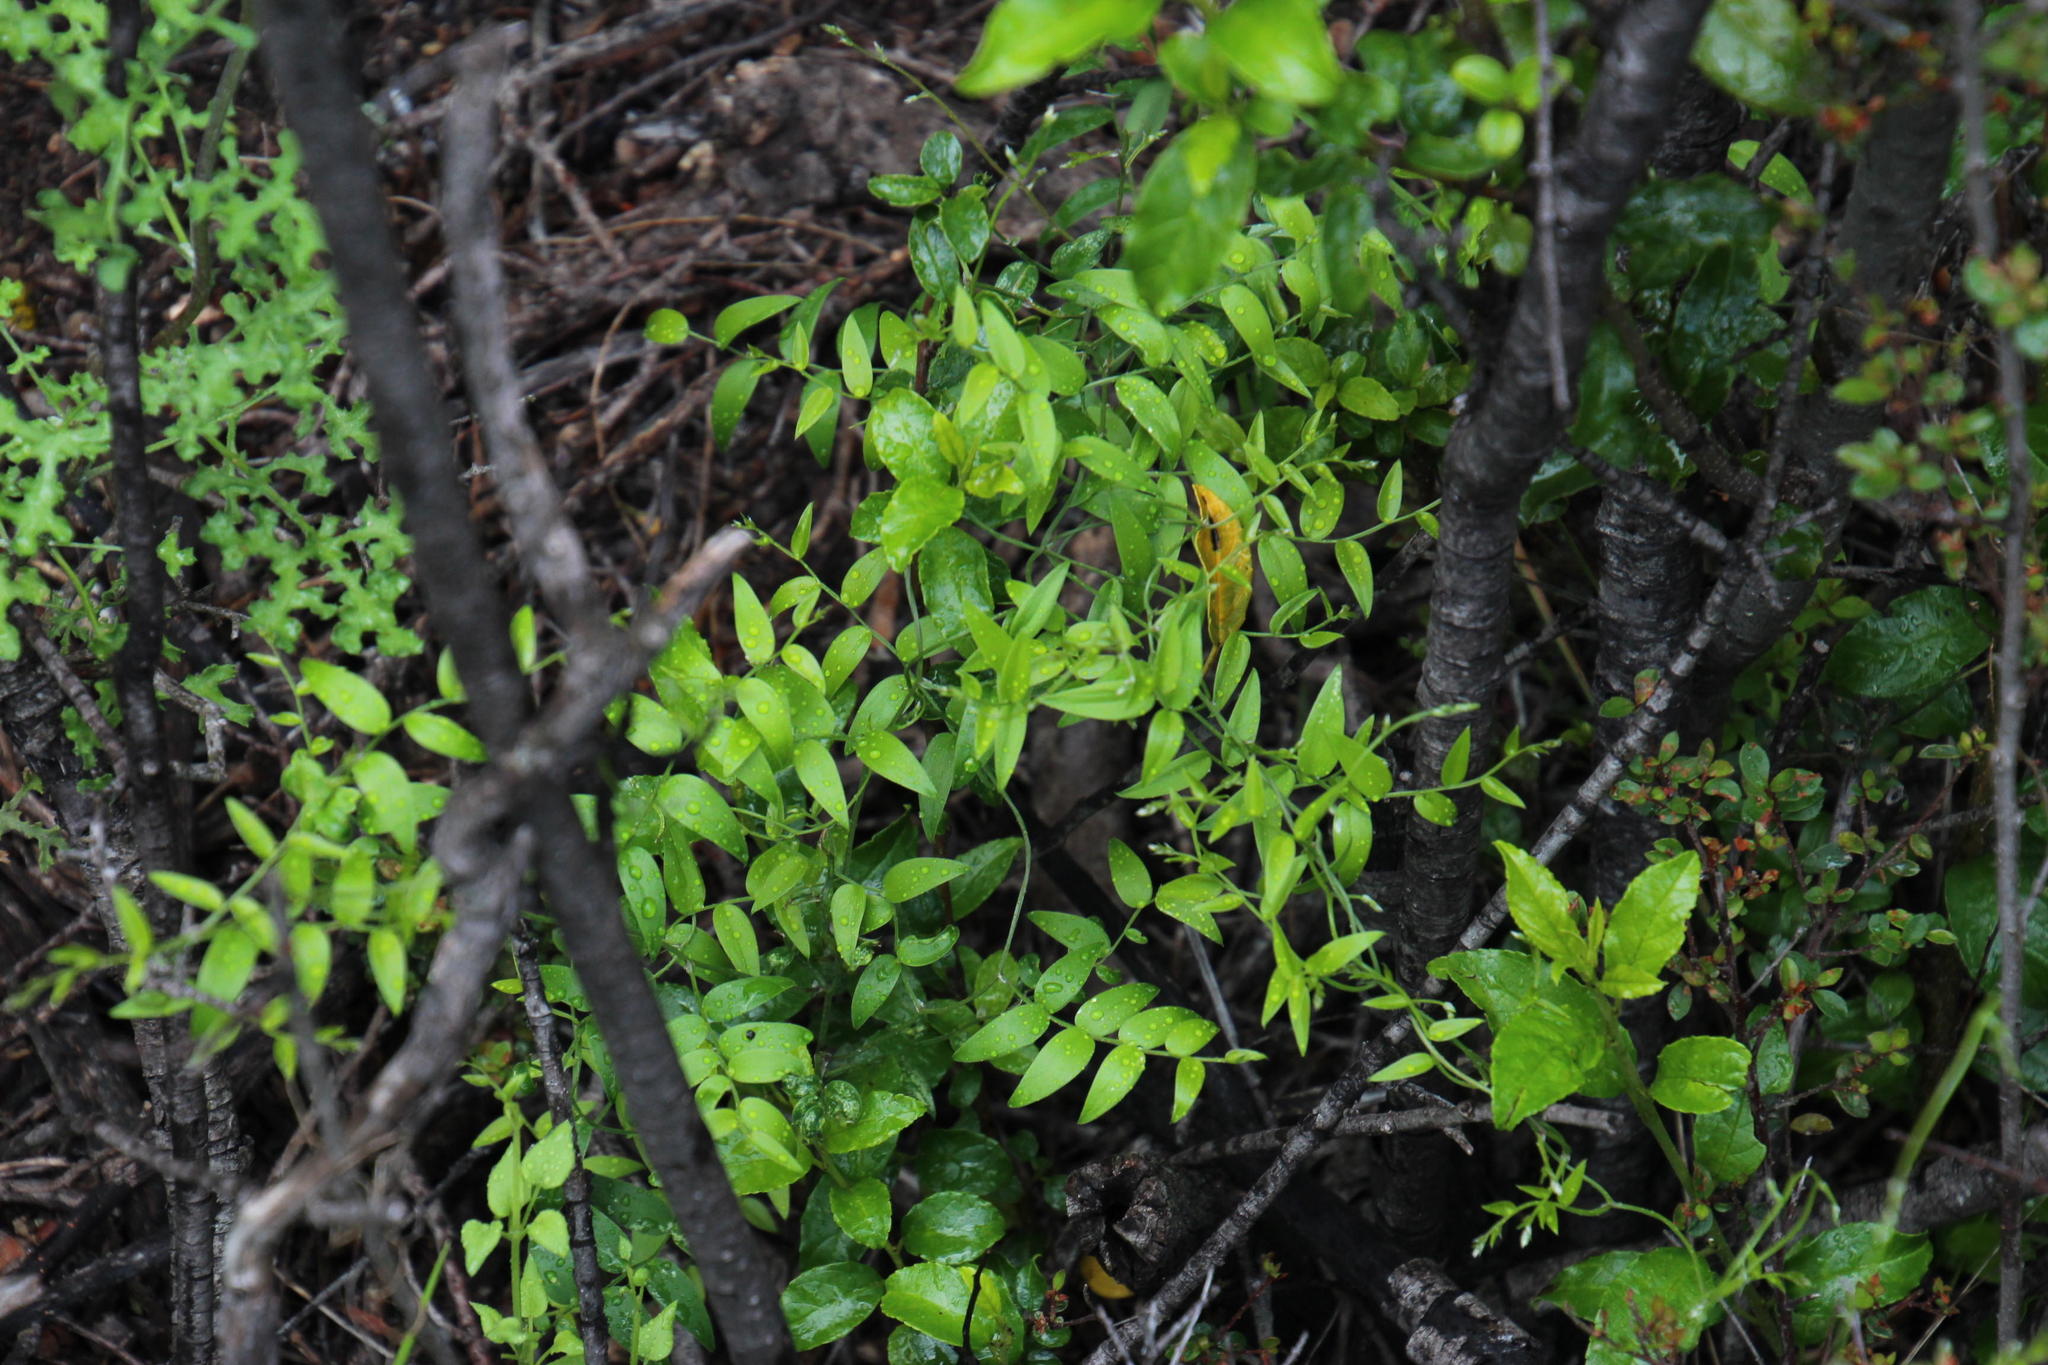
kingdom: Plantae
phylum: Tracheophyta
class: Liliopsida
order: Asparagales
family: Asparagaceae
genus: Asparagus
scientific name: Asparagus asparagoides
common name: African asparagus fern
